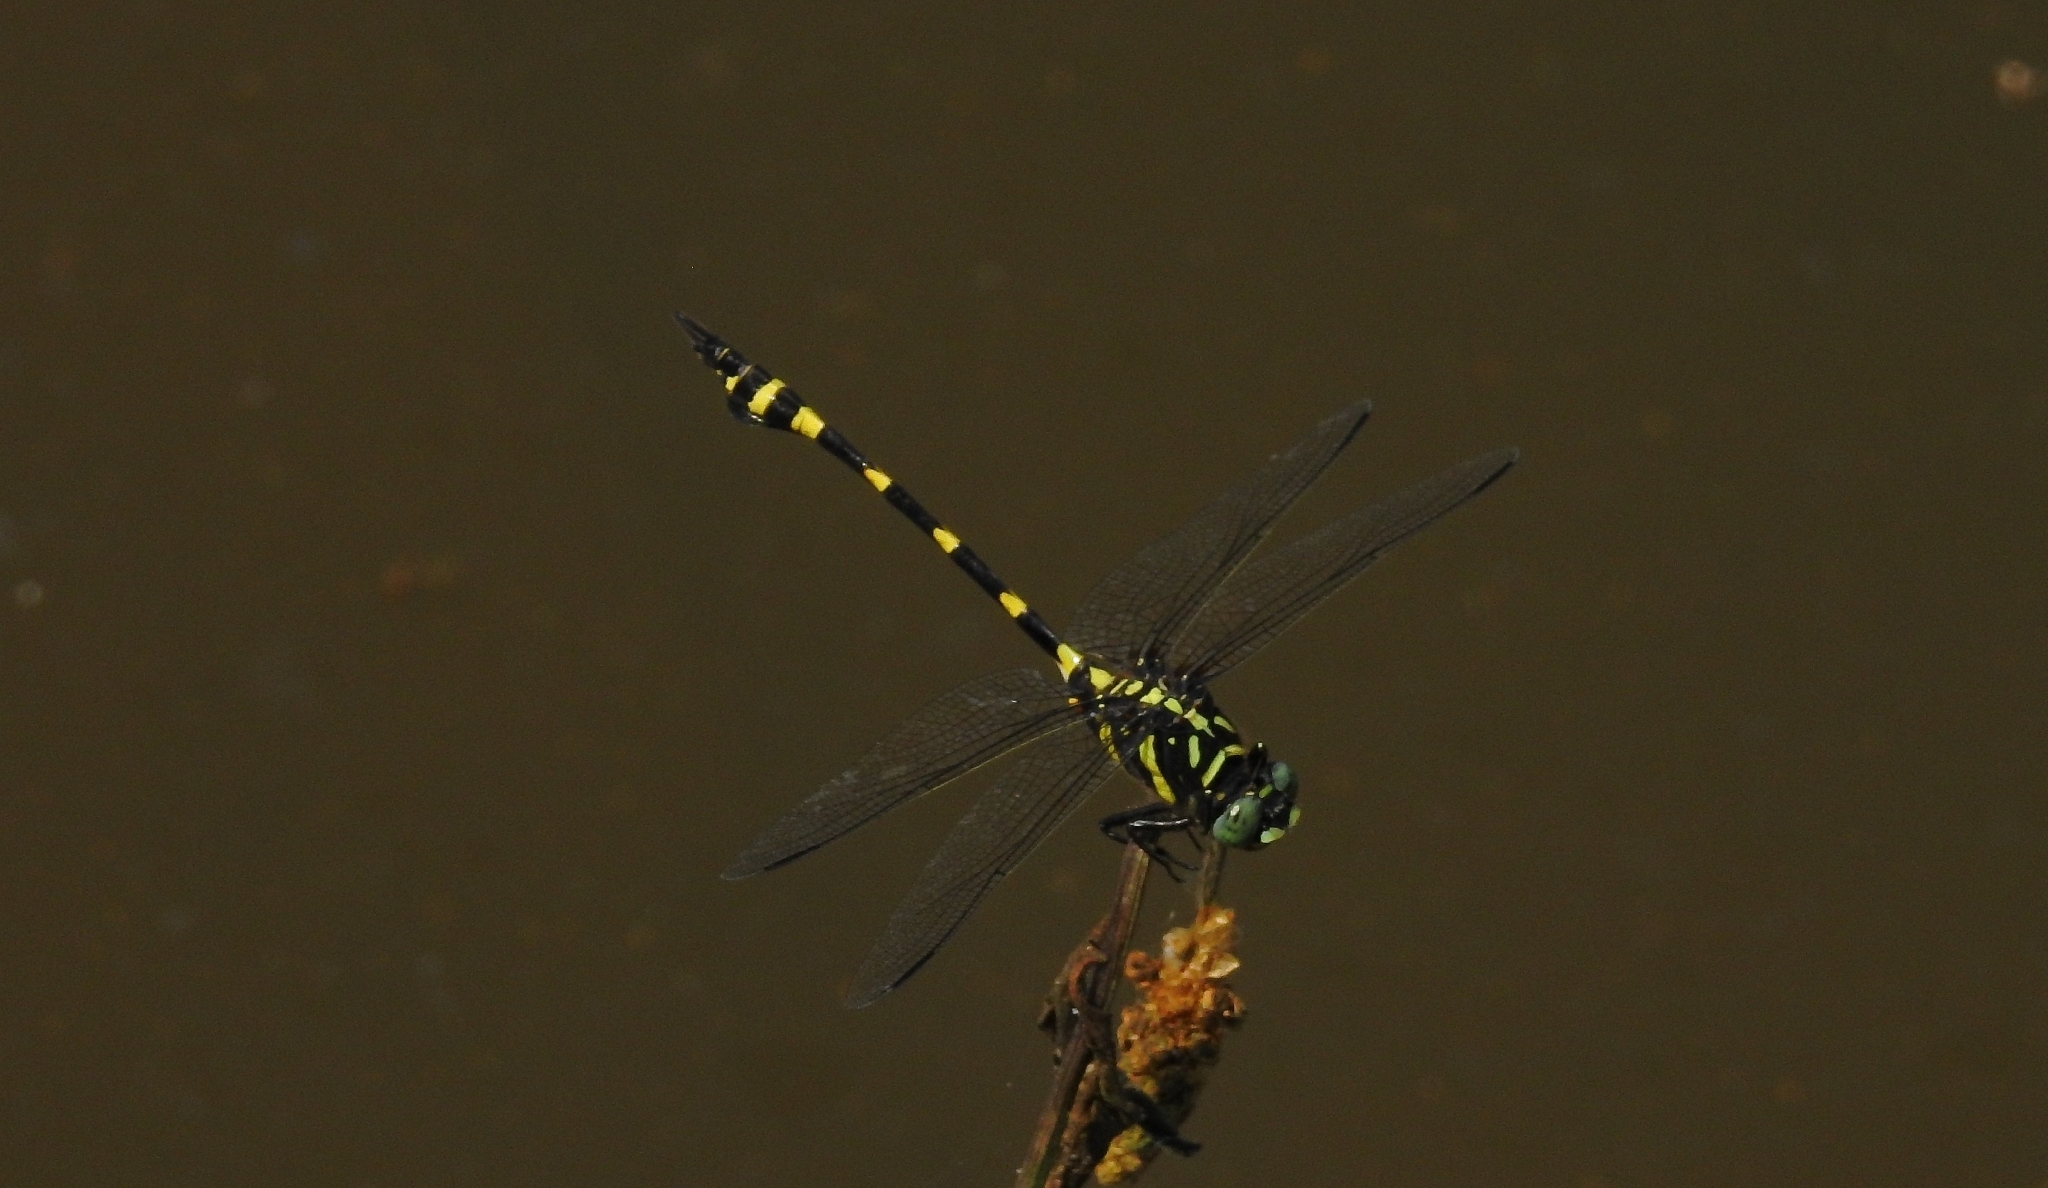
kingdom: Animalia
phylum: Arthropoda
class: Insecta
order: Odonata
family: Gomphidae
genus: Ictinogomphus
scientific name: Ictinogomphus rapax
